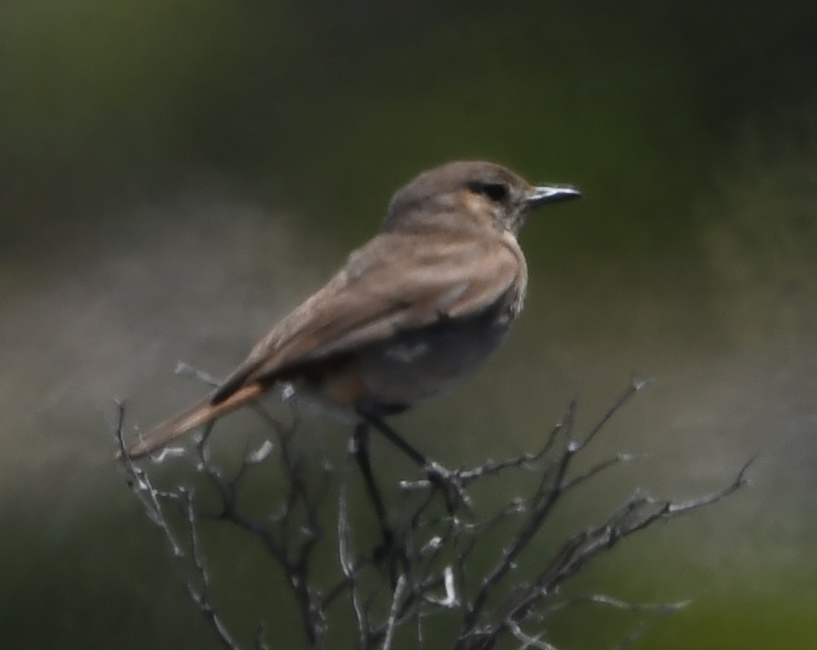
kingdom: Animalia
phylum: Chordata
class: Aves
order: Passeriformes
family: Muscicapidae
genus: Oenanthe
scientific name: Oenanthe familiaris
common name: Familiar chat
